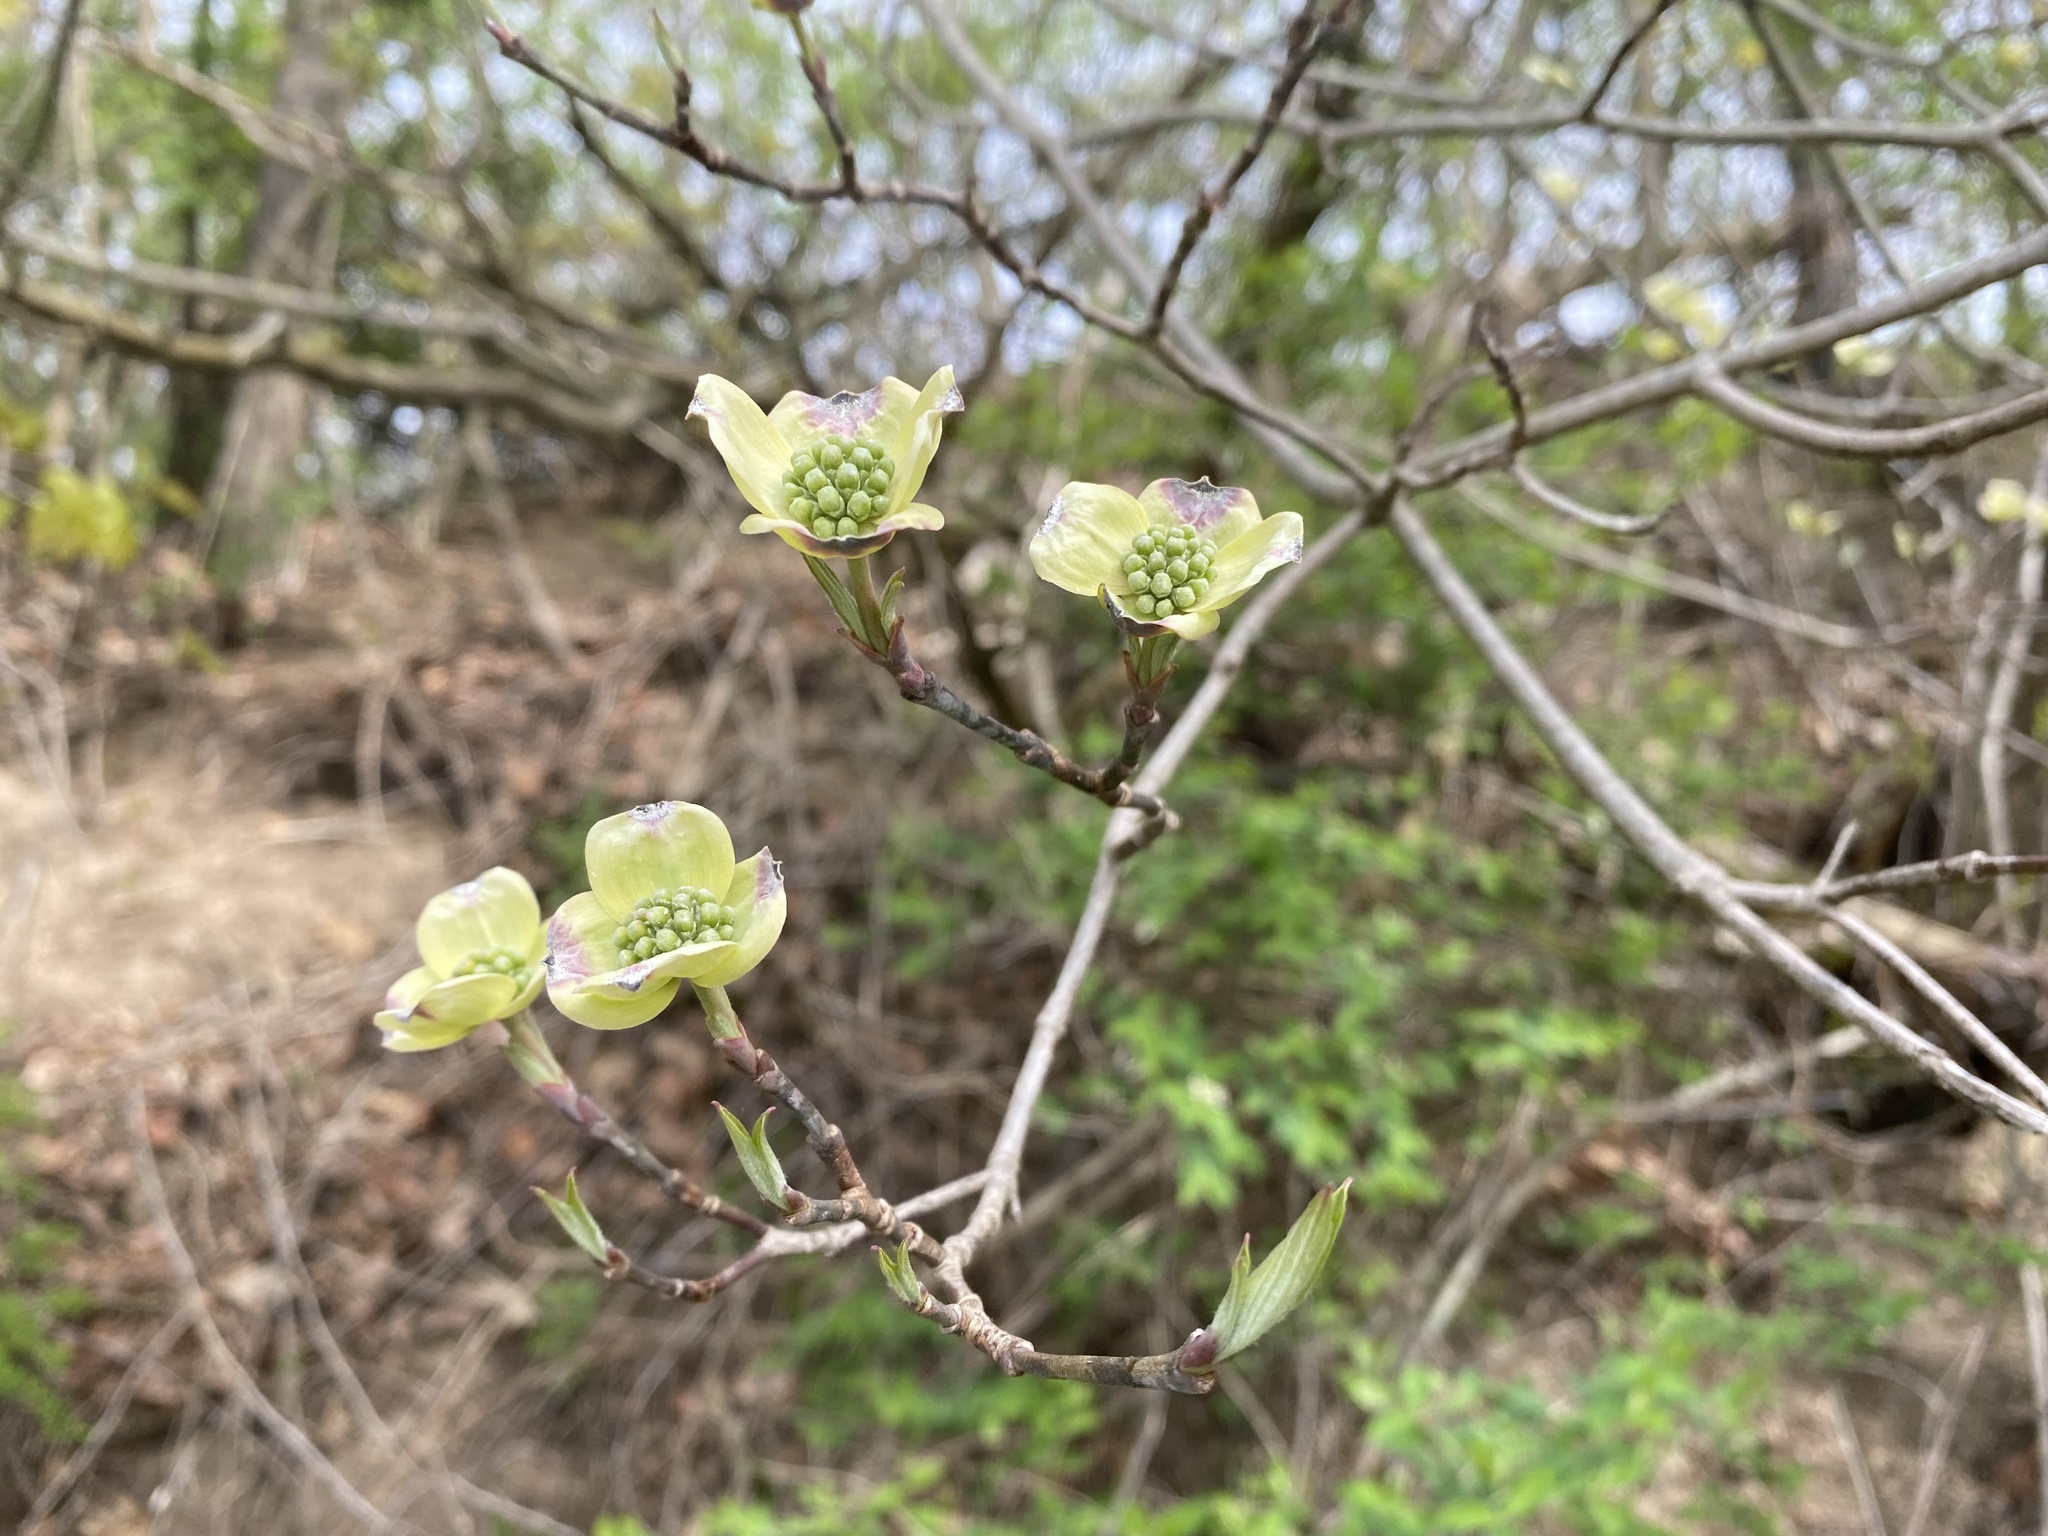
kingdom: Plantae
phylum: Tracheophyta
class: Magnoliopsida
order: Cornales
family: Cornaceae
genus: Cornus
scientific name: Cornus florida
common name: Flowering dogwood
